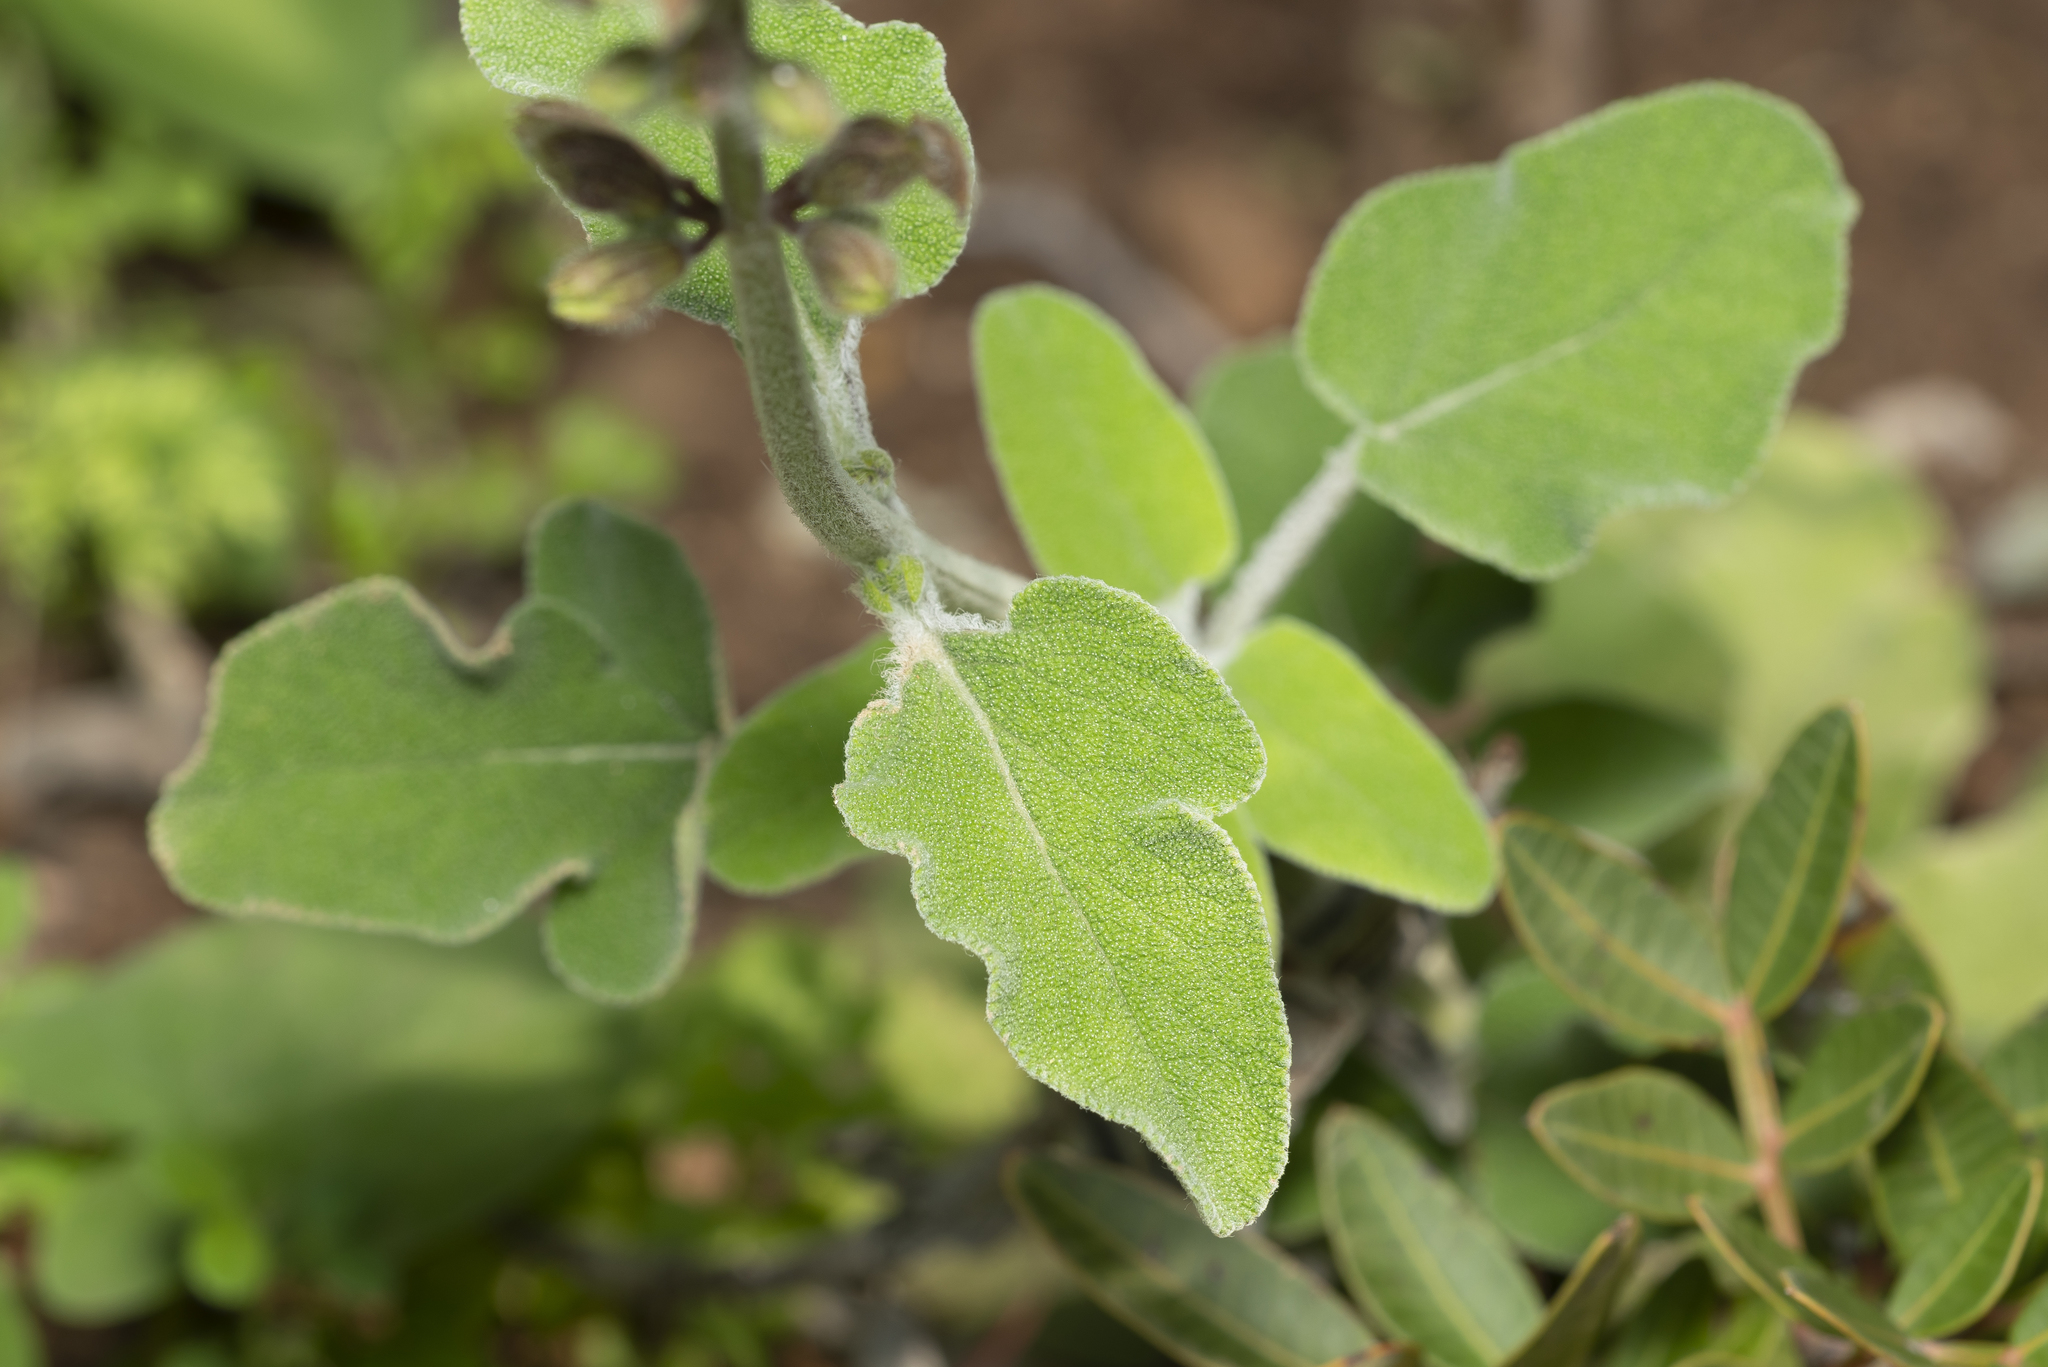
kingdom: Plantae
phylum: Tracheophyta
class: Magnoliopsida
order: Lamiales
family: Lamiaceae
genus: Salvia
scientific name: Salvia fruticosa
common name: Greek sage
